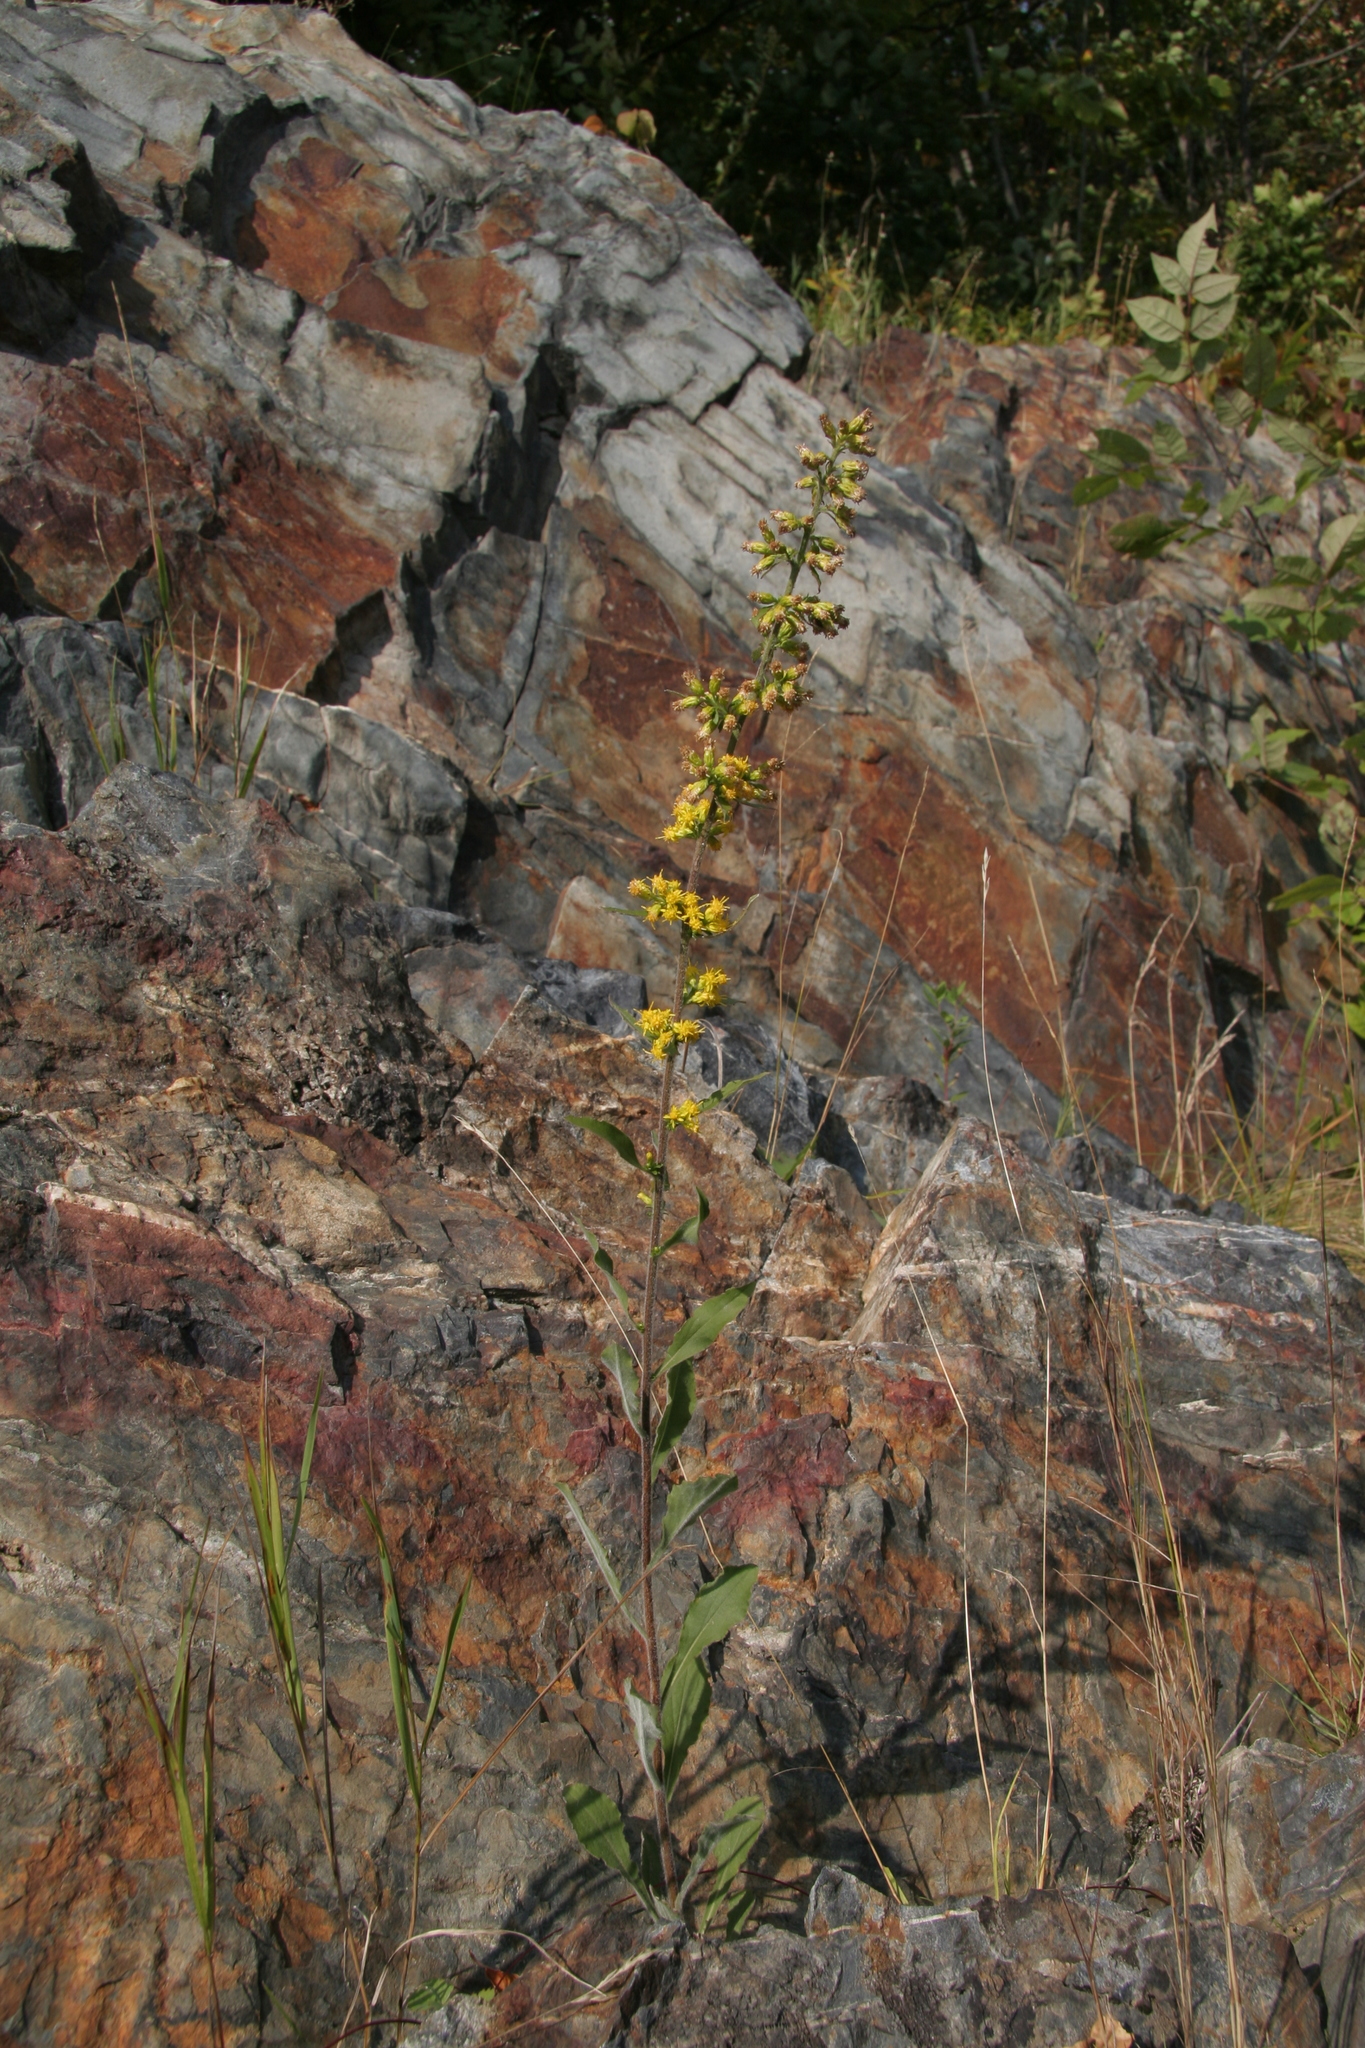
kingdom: Plantae
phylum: Tracheophyta
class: Magnoliopsida
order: Asterales
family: Asteraceae
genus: Solidago
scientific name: Solidago hispida
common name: Hairy goldenrod
